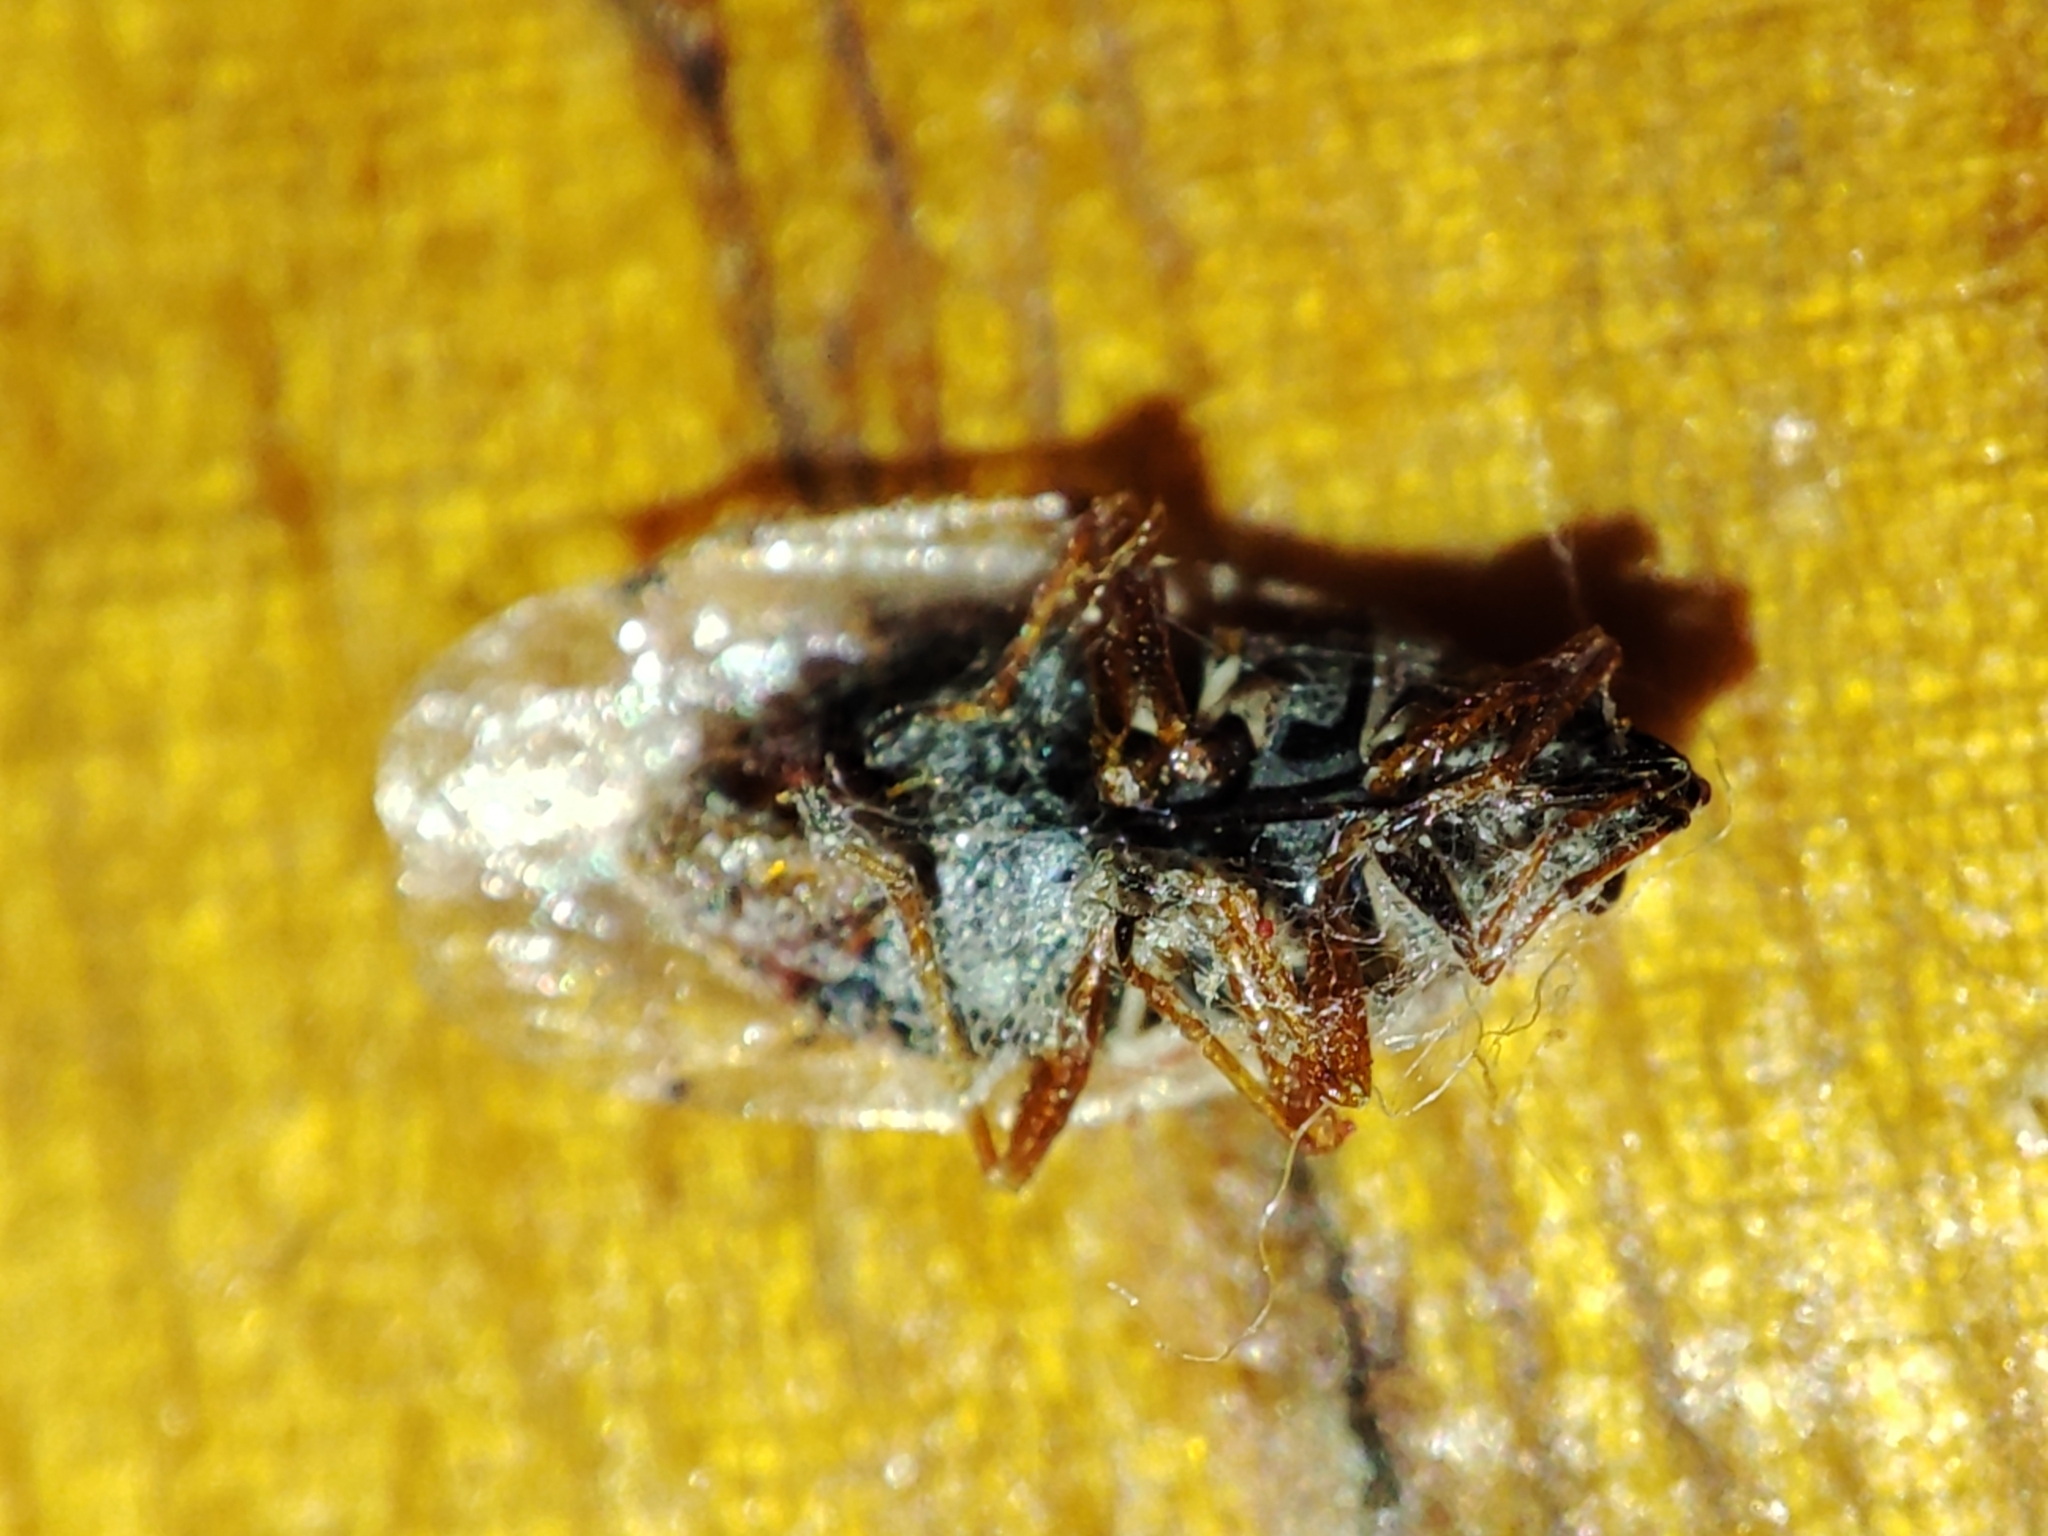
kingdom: Animalia
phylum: Arthropoda
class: Insecta
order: Hemiptera
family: Lygaeidae
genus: Kleidocerys
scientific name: Kleidocerys resedae
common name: Birch catkin bug
